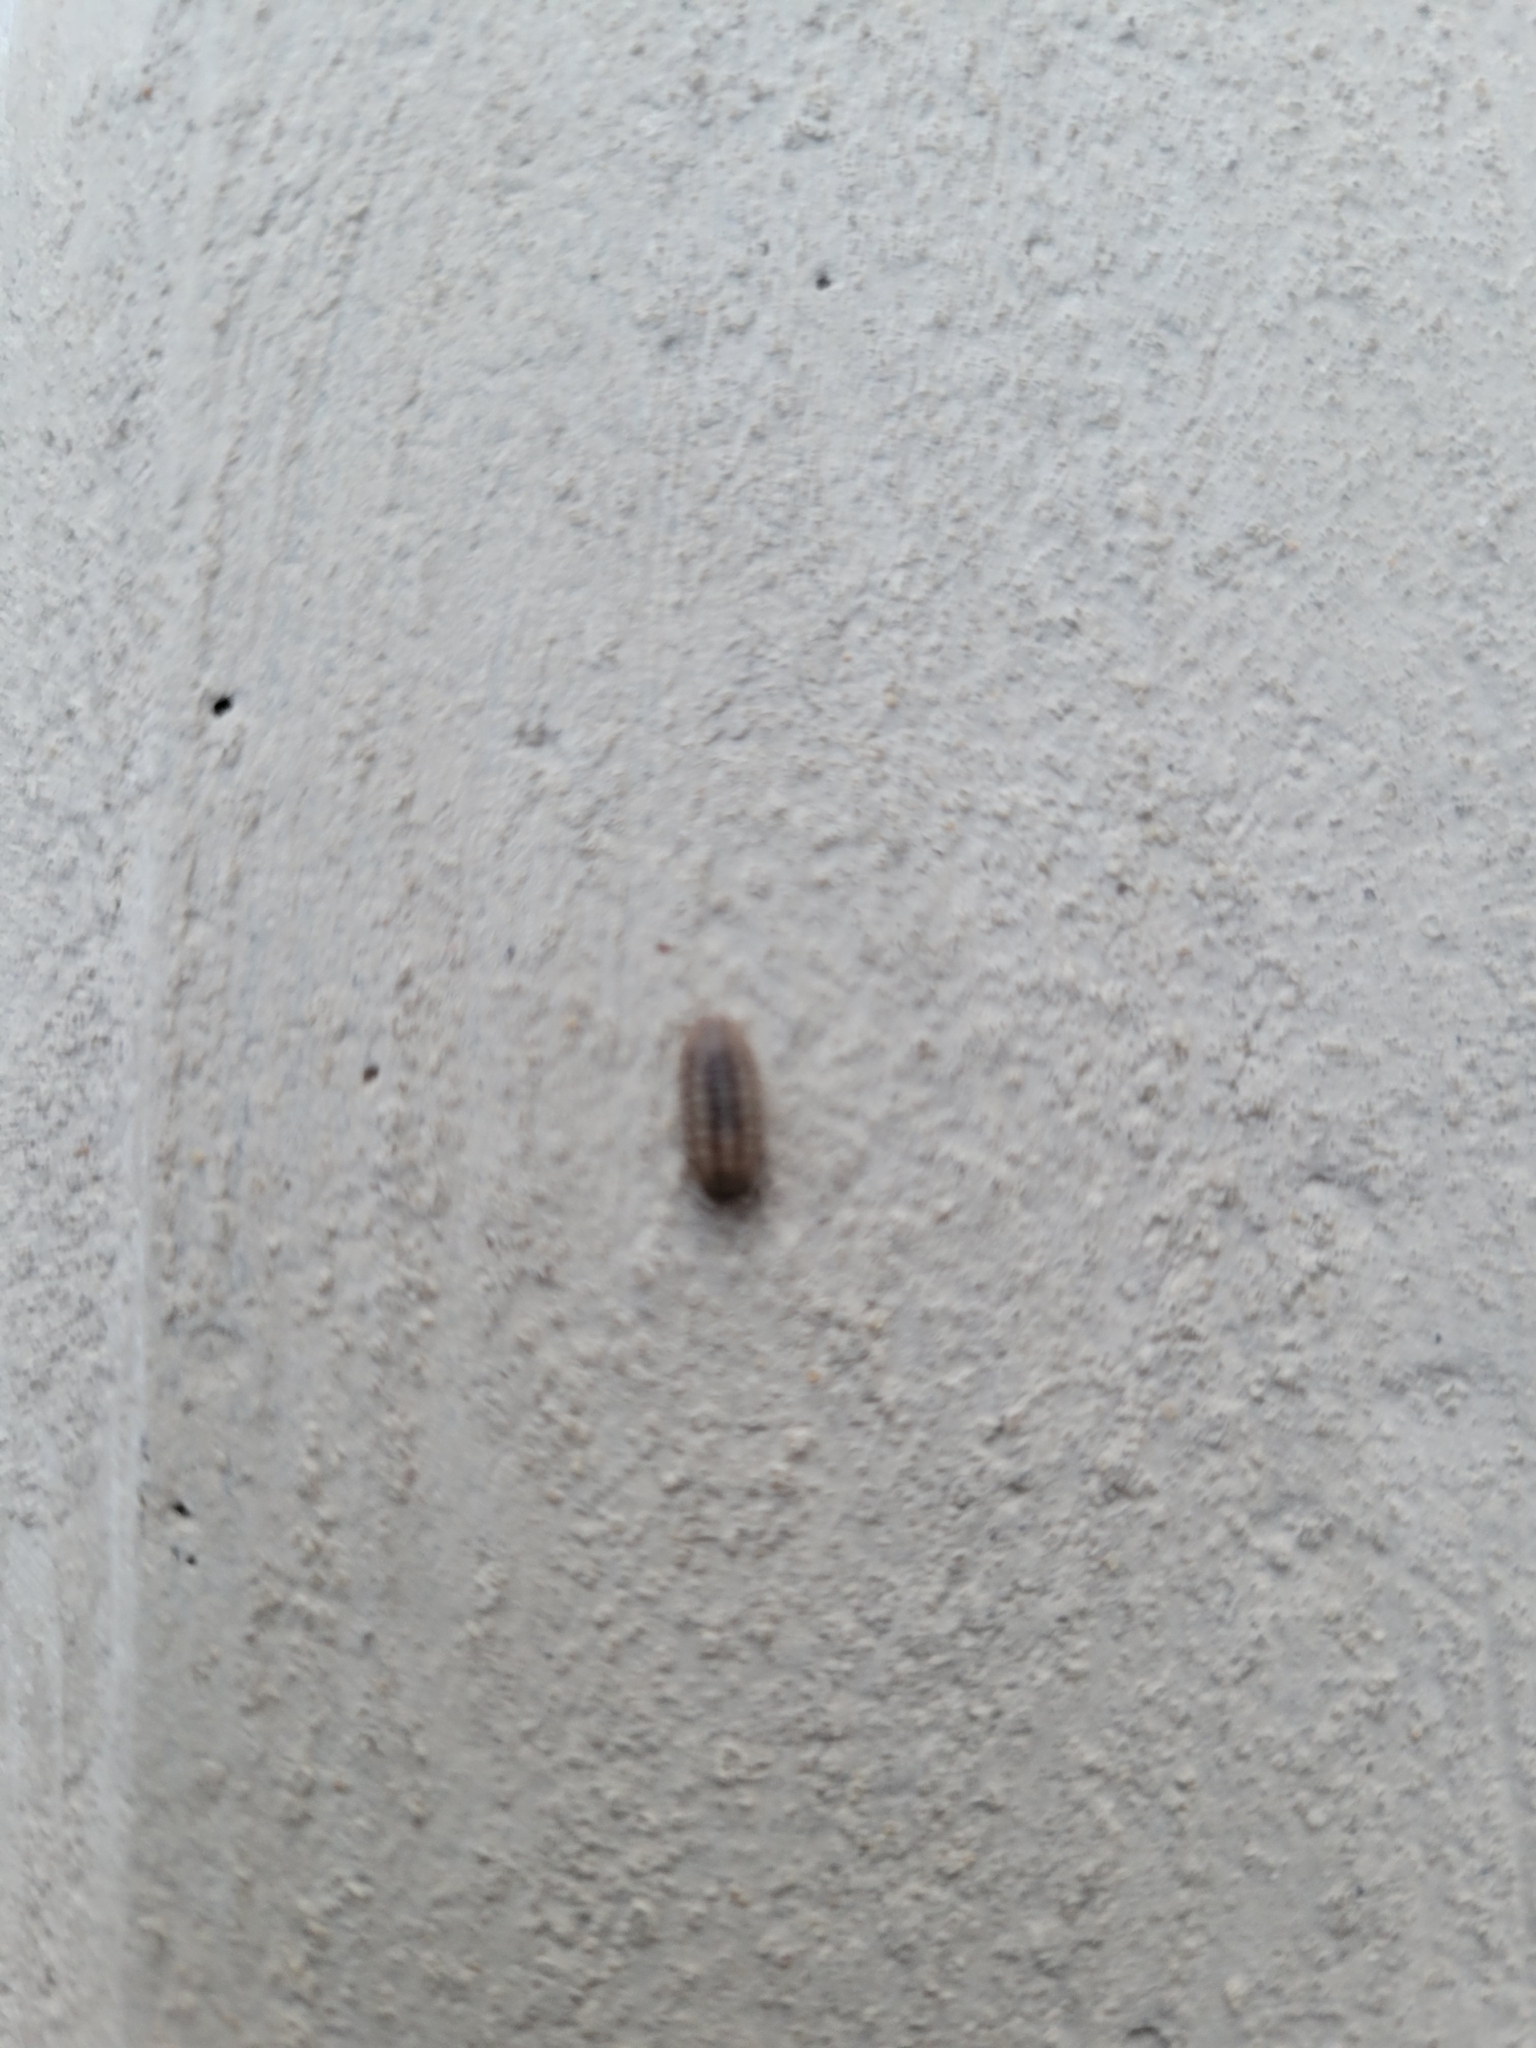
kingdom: Animalia
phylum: Arthropoda
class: Malacostraca
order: Isopoda
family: Armadillidiidae
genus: Armadillidium
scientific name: Armadillidium nasatum
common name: Isopod
